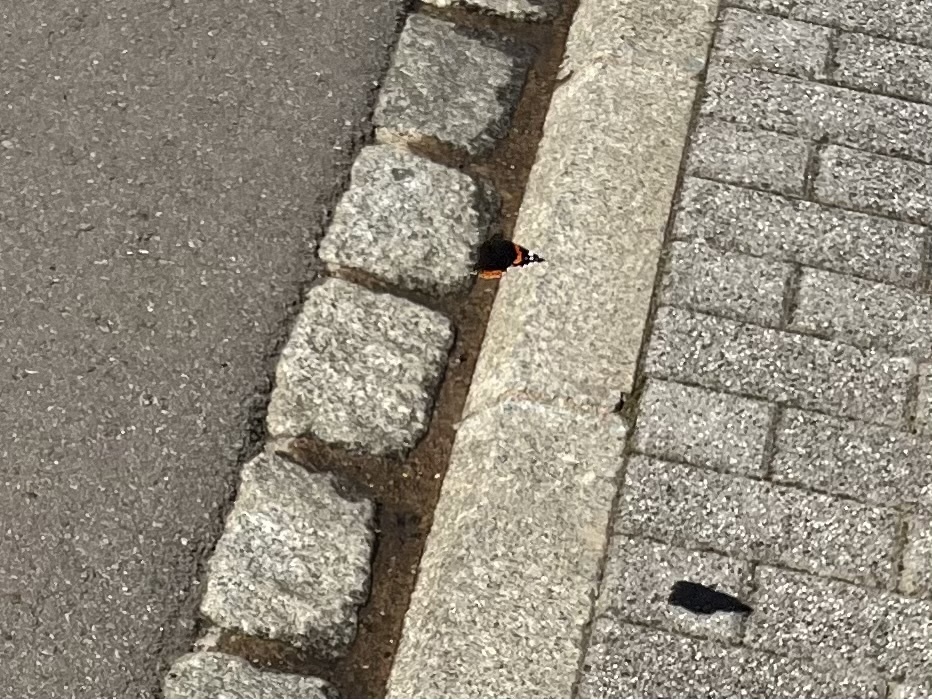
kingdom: Animalia
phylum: Arthropoda
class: Insecta
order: Lepidoptera
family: Nymphalidae
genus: Vanessa
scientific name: Vanessa atalanta
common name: Red admiral
